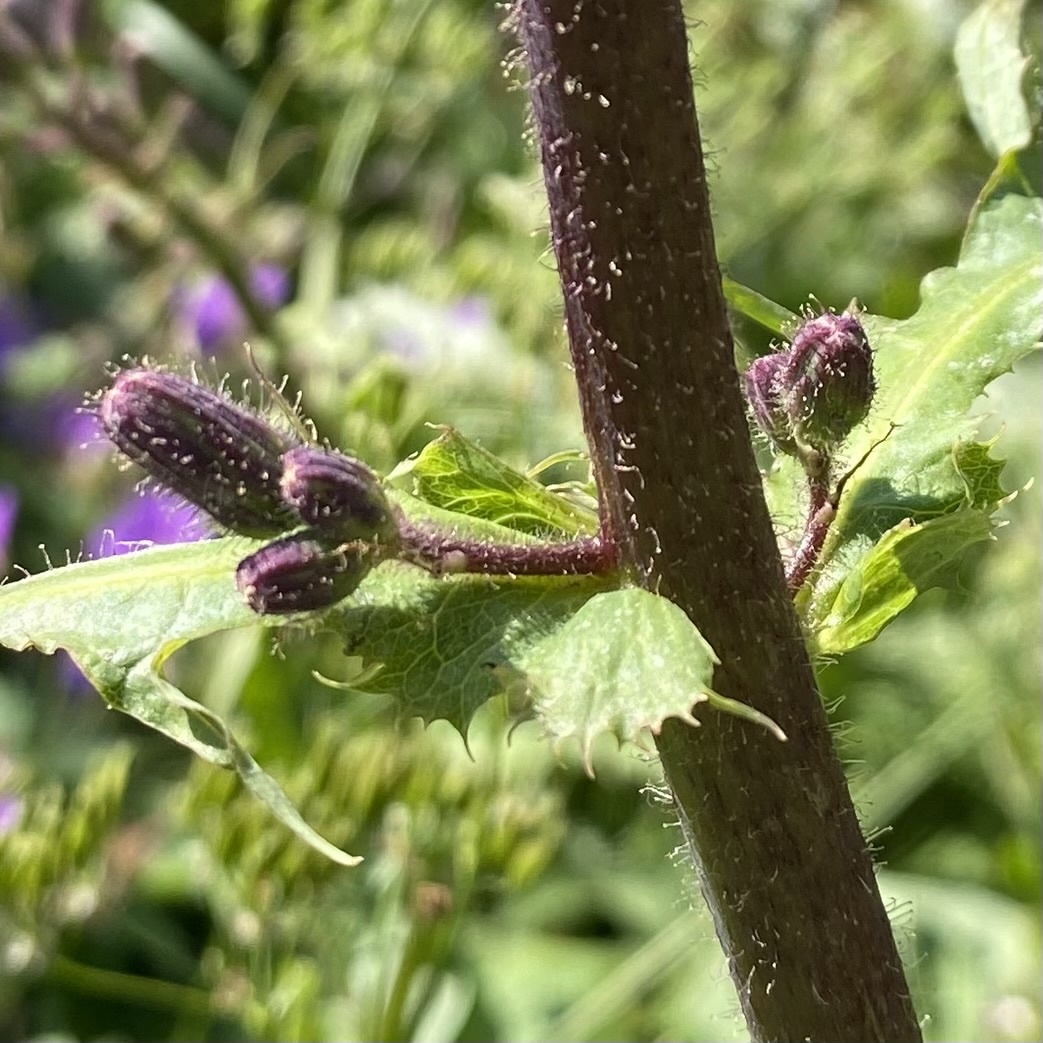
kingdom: Plantae
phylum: Tracheophyta
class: Magnoliopsida
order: Asterales
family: Asteraceae
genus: Cicerbita
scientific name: Cicerbita alpina
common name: Alpine blue-sow-thistle
